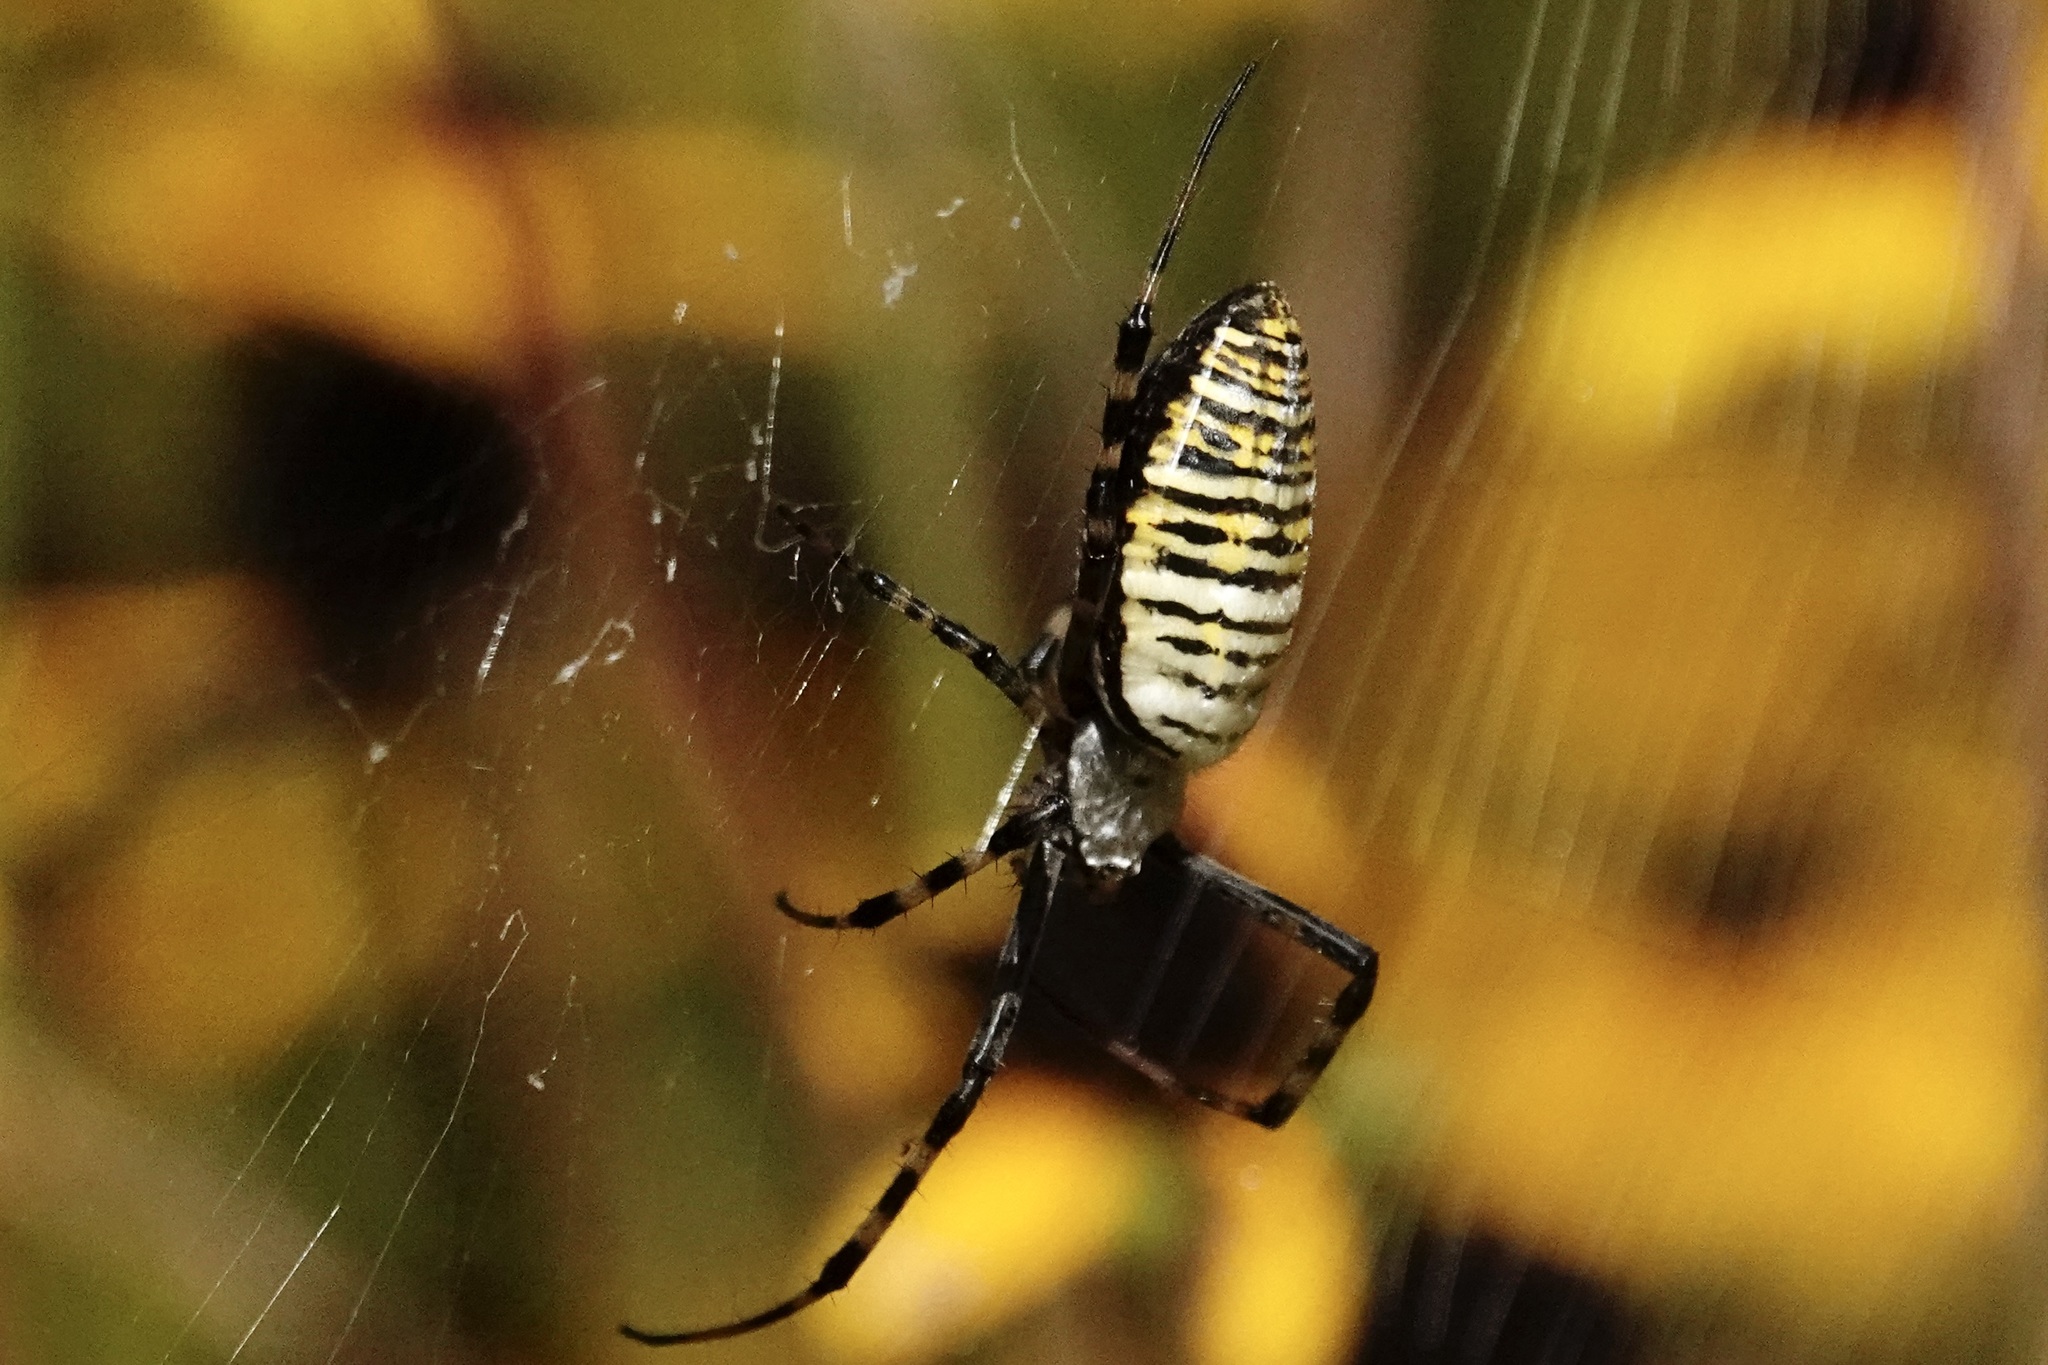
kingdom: Animalia
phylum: Arthropoda
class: Arachnida
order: Araneae
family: Araneidae
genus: Argiope
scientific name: Argiope trifasciata
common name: Banded garden spider
